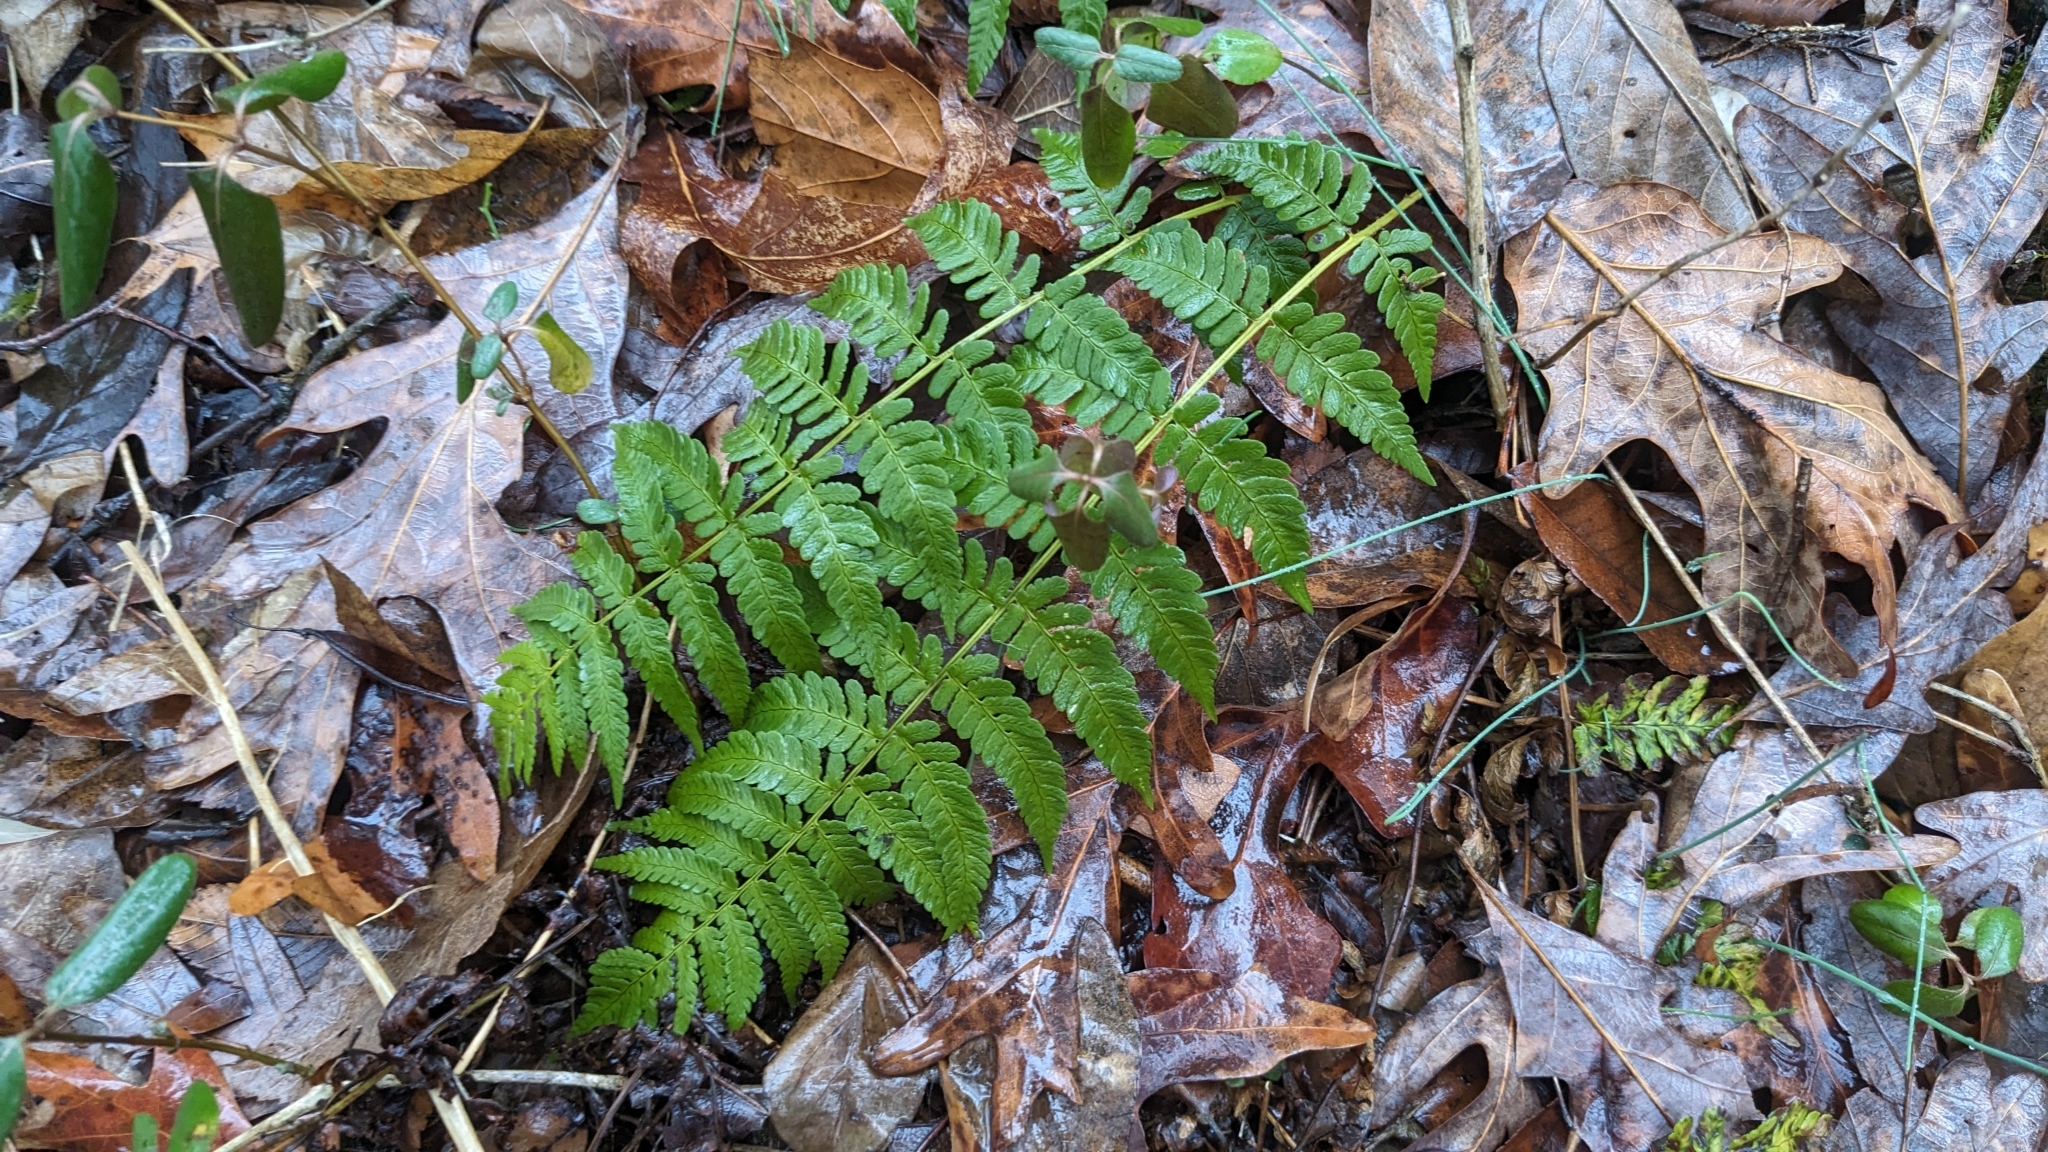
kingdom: Plantae
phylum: Tracheophyta
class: Polypodiopsida
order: Polypodiales
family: Dryopteridaceae
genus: Dryopteris
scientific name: Dryopteris marginalis
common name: Marginal wood fern
